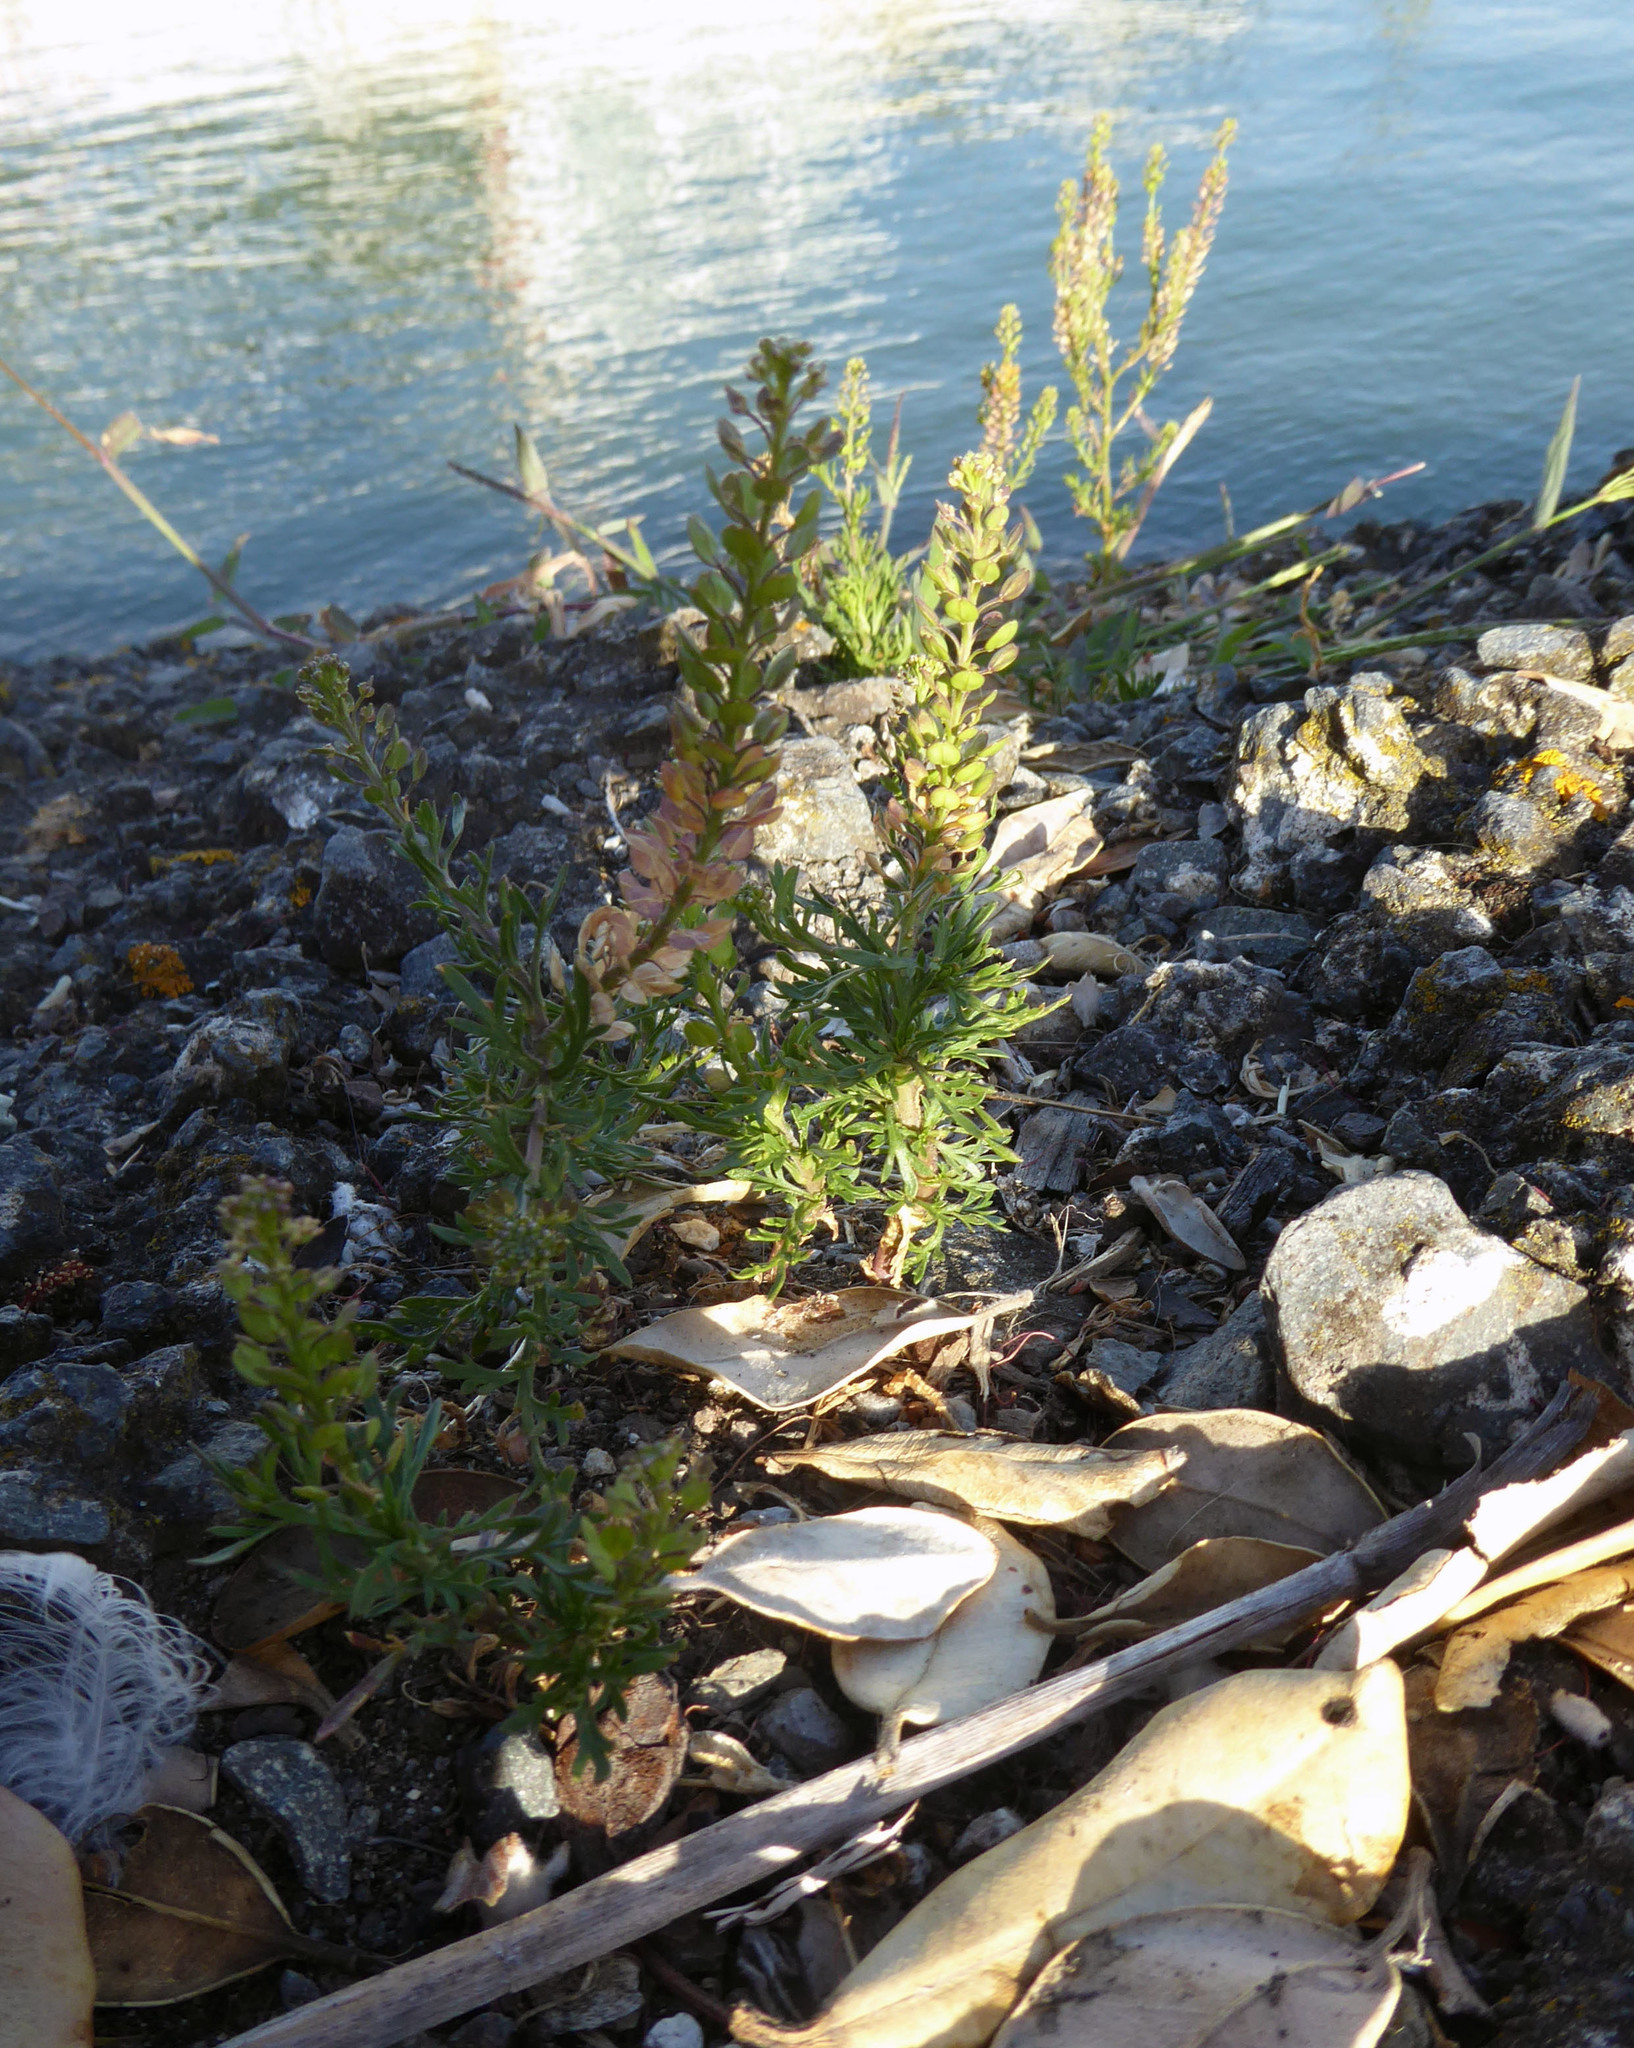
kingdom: Plantae
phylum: Tracheophyta
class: Magnoliopsida
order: Brassicales
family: Brassicaceae
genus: Lepidium
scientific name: Lepidium bonariense
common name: Argentine pepperwort
